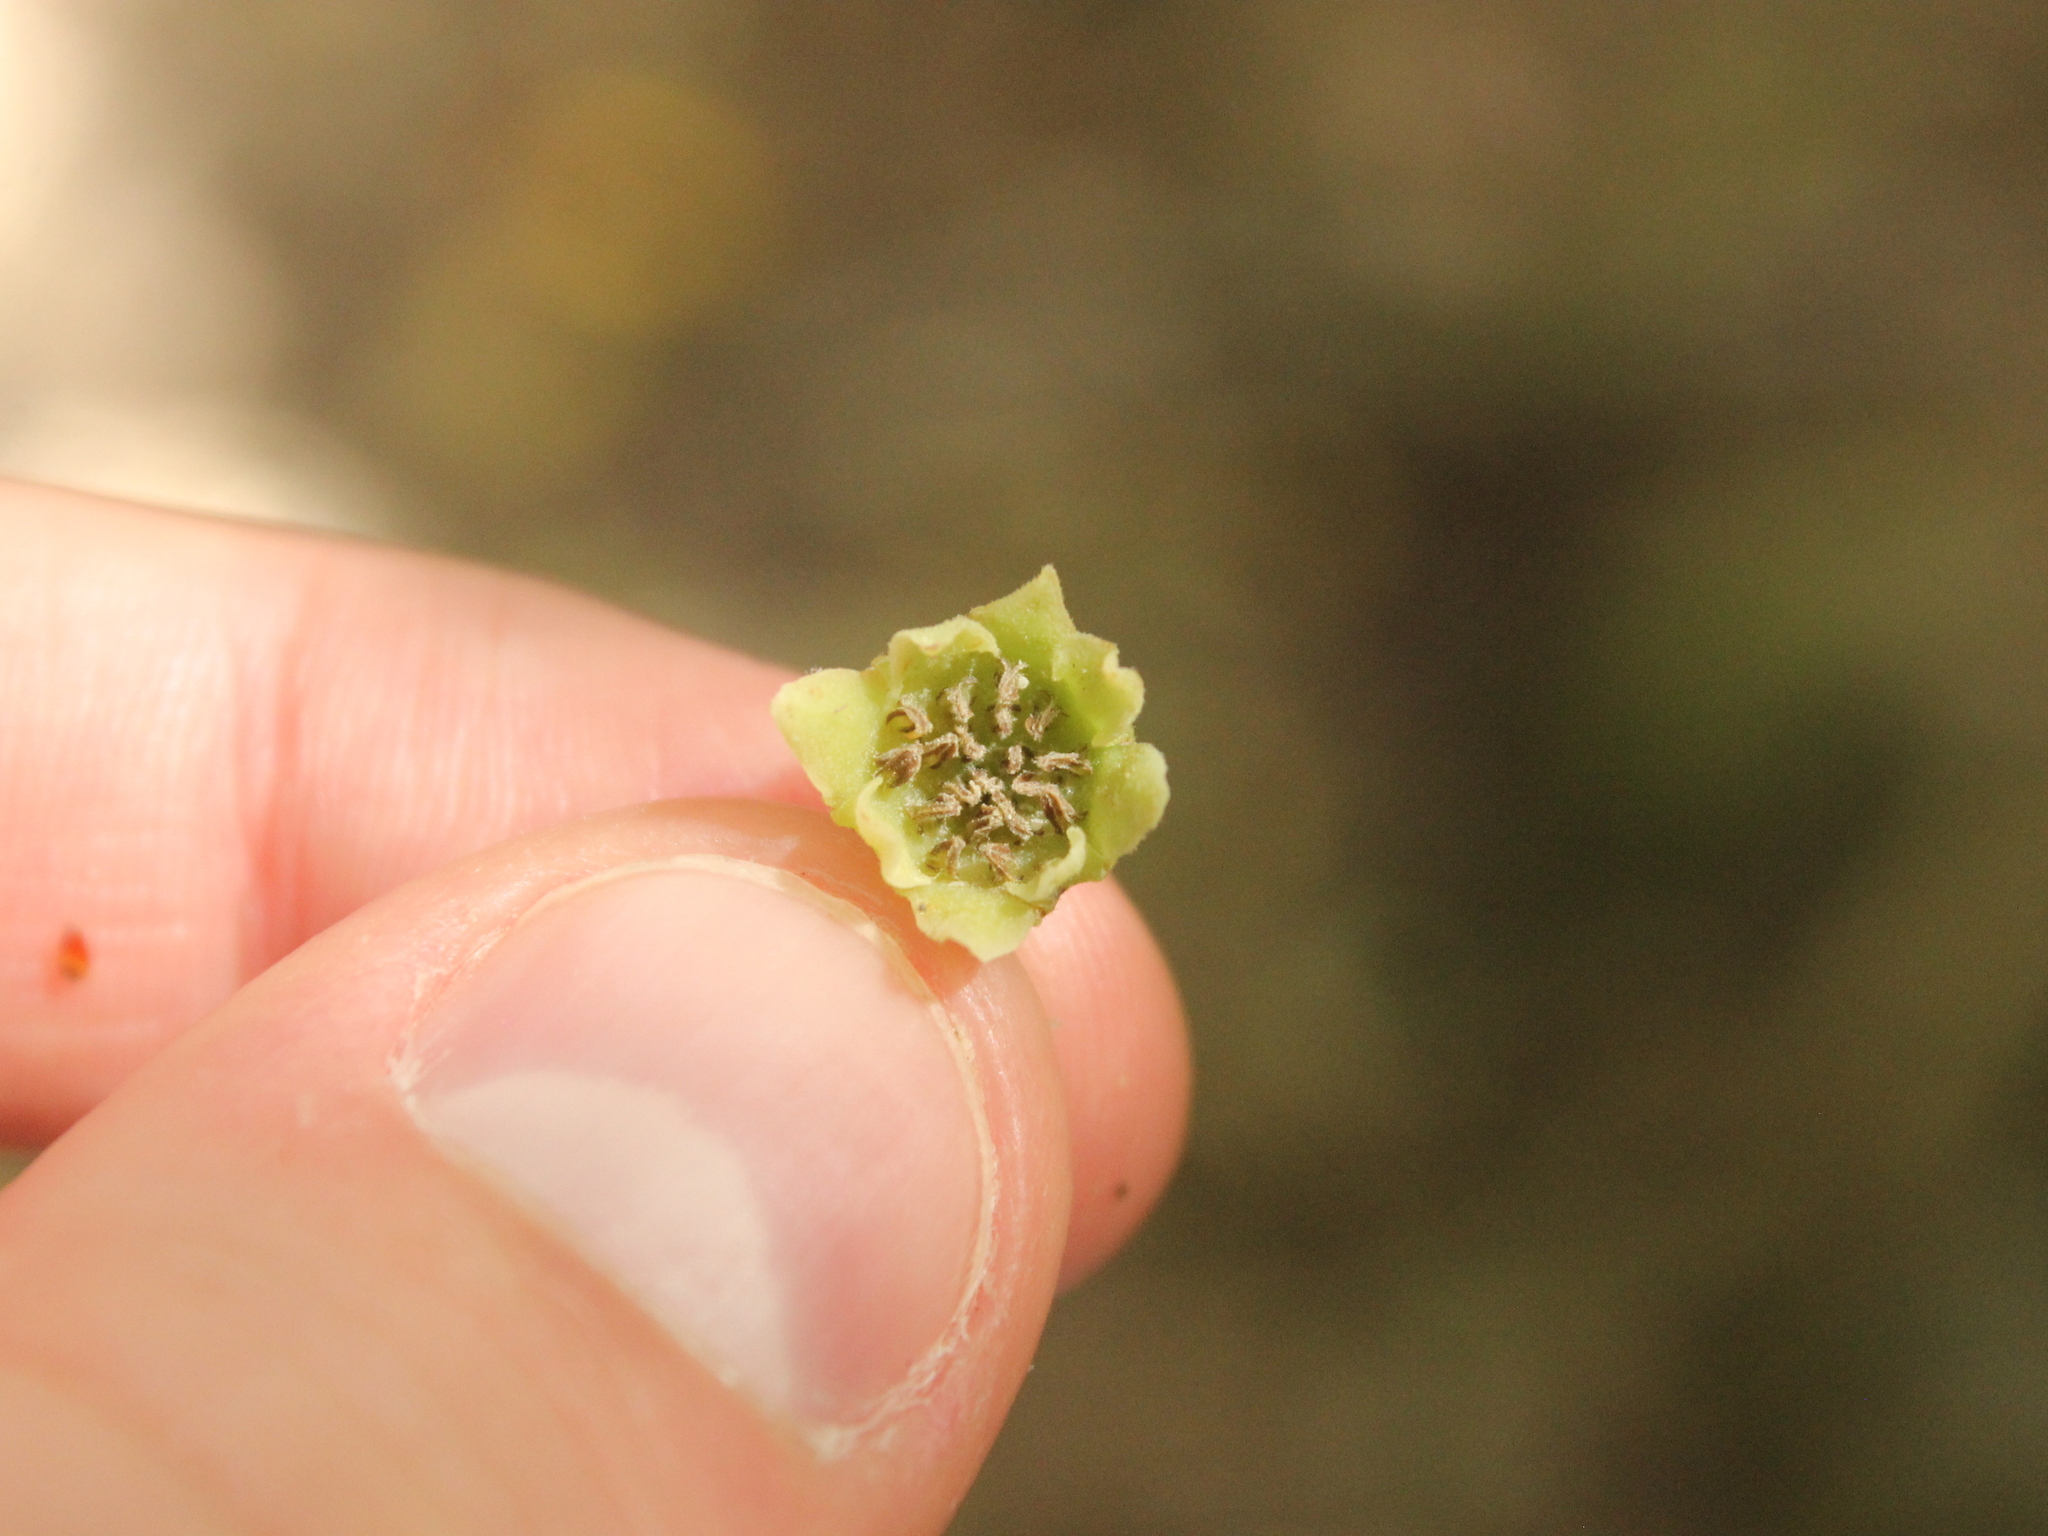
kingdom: Plantae
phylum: Tracheophyta
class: Magnoliopsida
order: Laurales
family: Monimiaceae
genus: Hedycarya
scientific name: Hedycarya arborea
